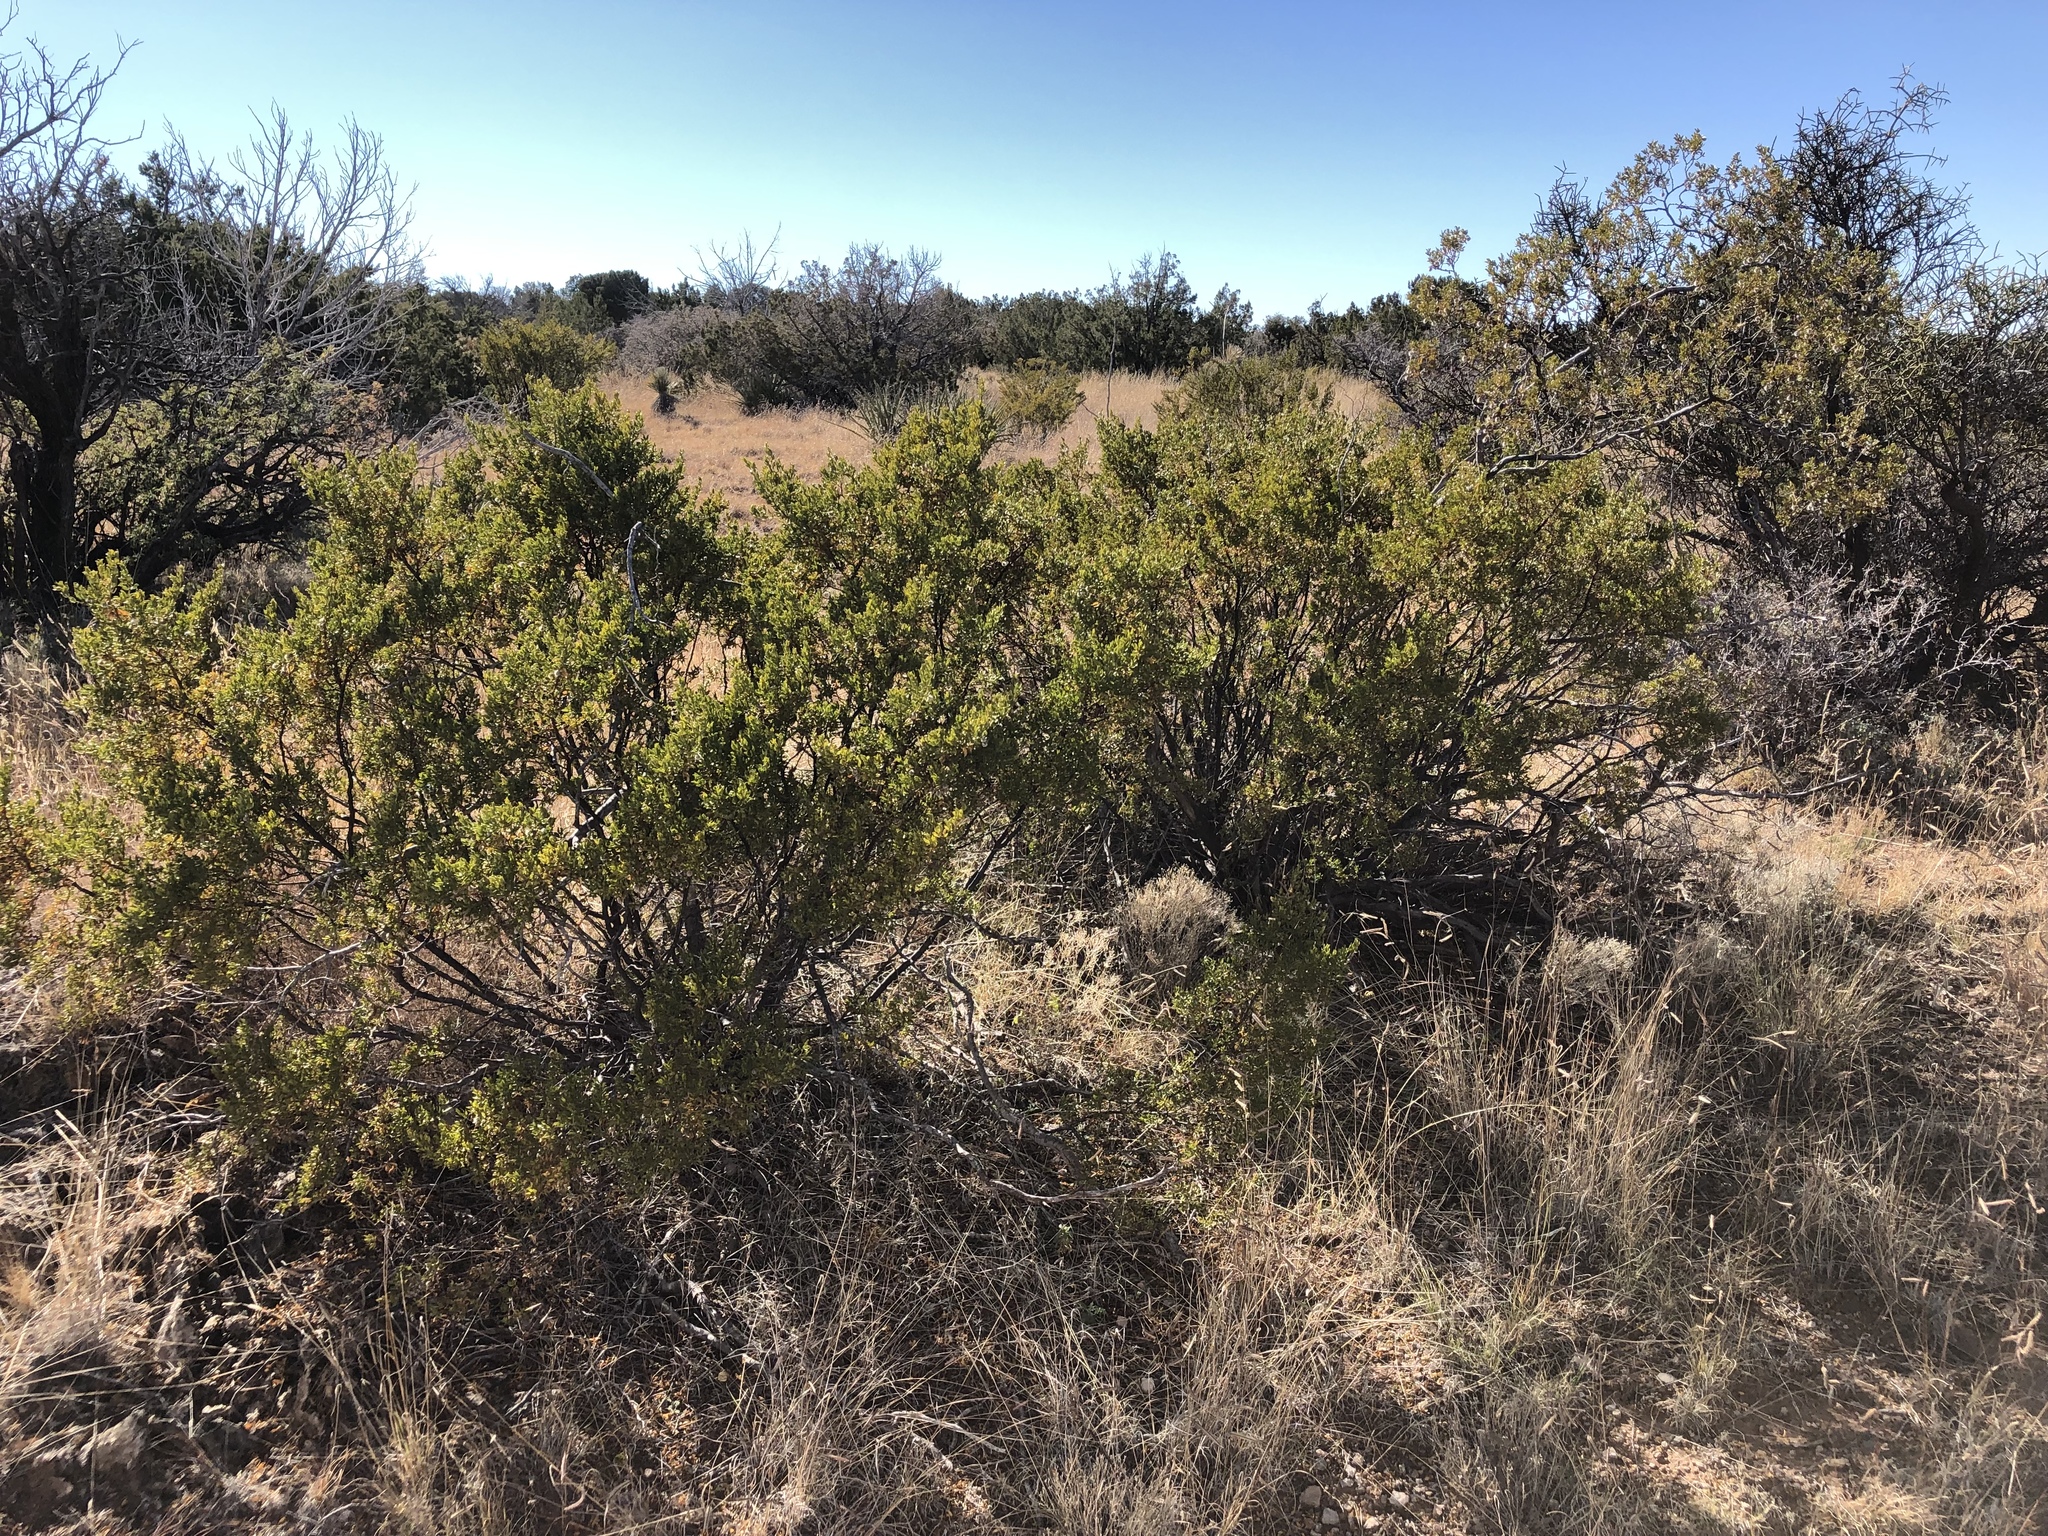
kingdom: Plantae
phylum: Tracheophyta
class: Magnoliopsida
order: Zygophyllales
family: Zygophyllaceae
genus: Larrea
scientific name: Larrea tridentata
